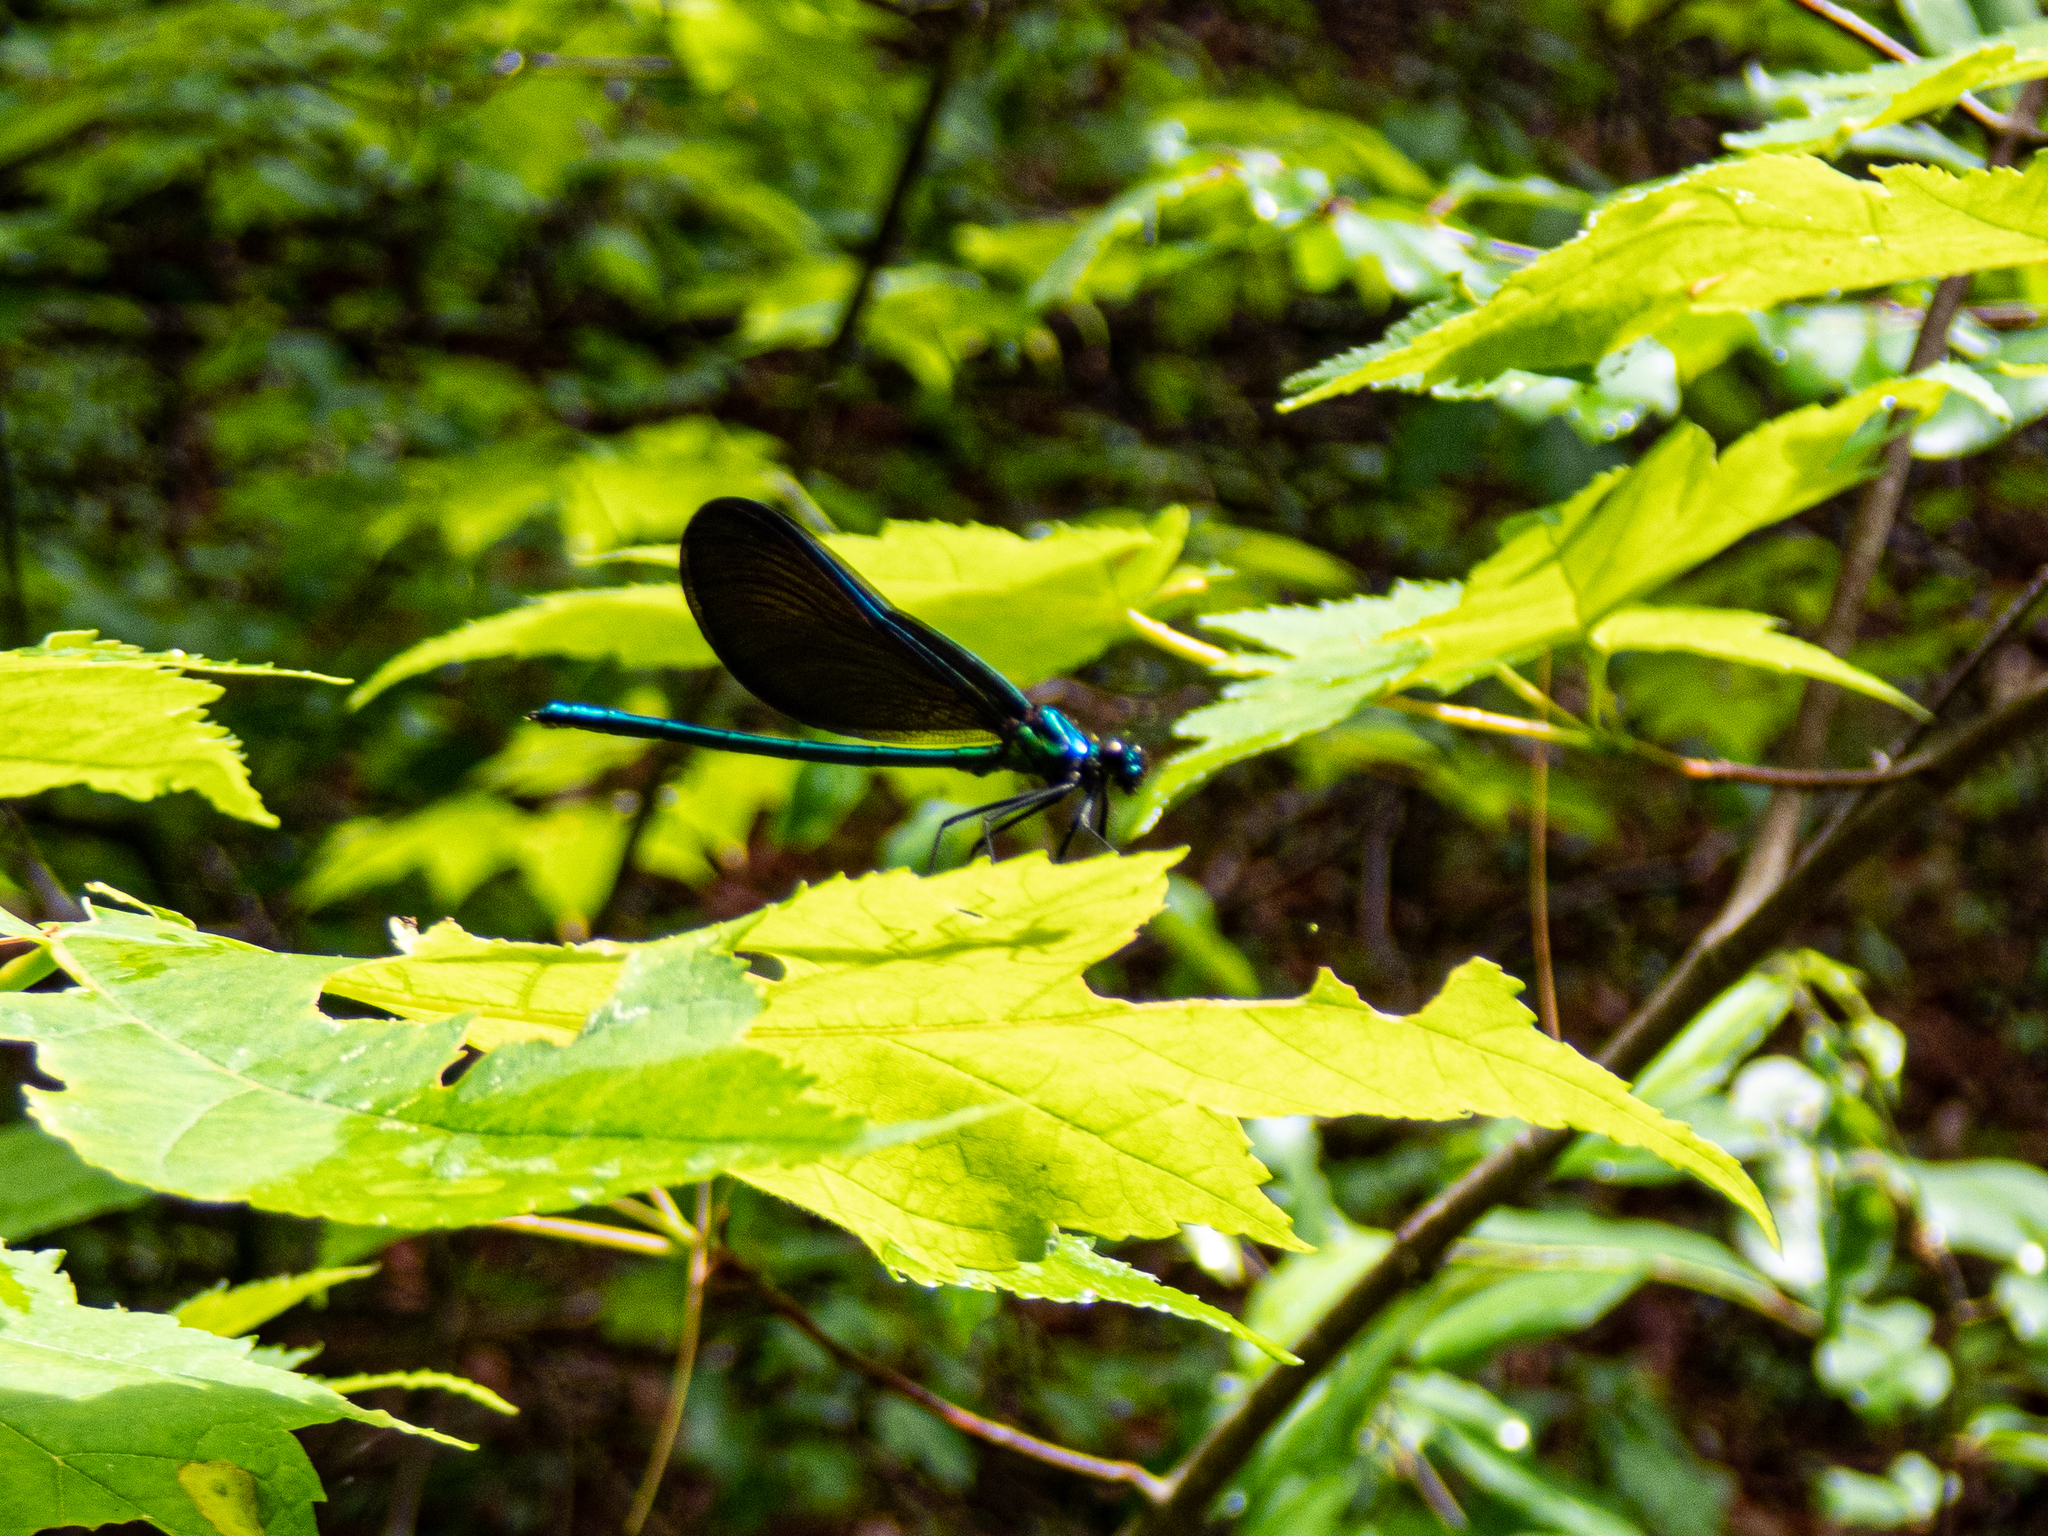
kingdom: Animalia
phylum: Arthropoda
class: Insecta
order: Odonata
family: Calopterygidae
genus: Calopteryx
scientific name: Calopteryx maculata
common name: Ebony jewelwing
